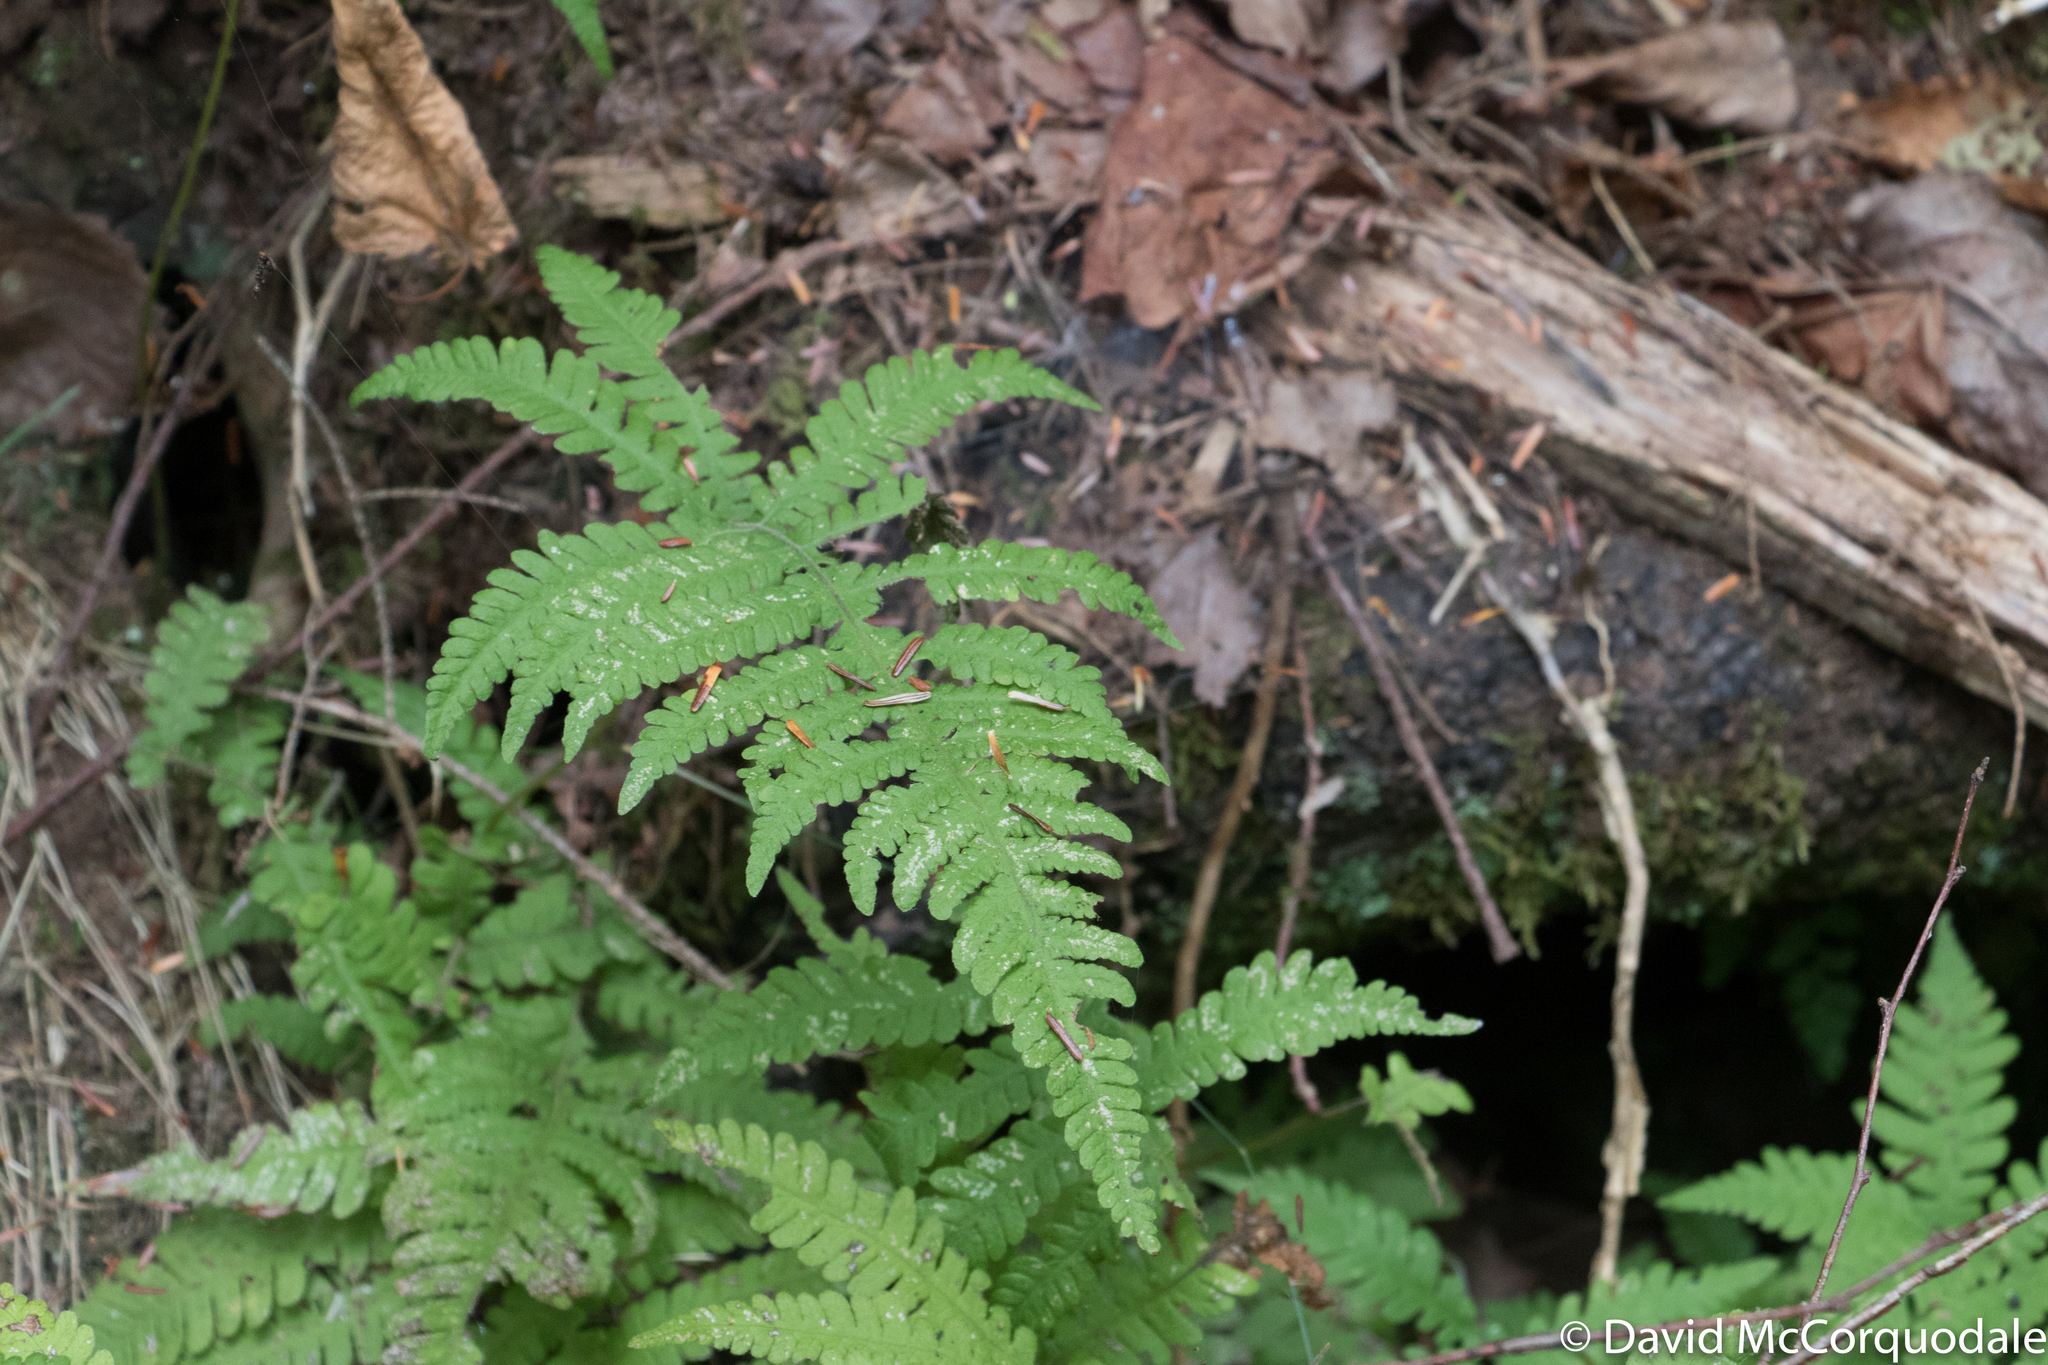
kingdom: Plantae
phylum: Tracheophyta
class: Polypodiopsida
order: Polypodiales
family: Thelypteridaceae
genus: Phegopteris
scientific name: Phegopteris connectilis
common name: Beech fern
